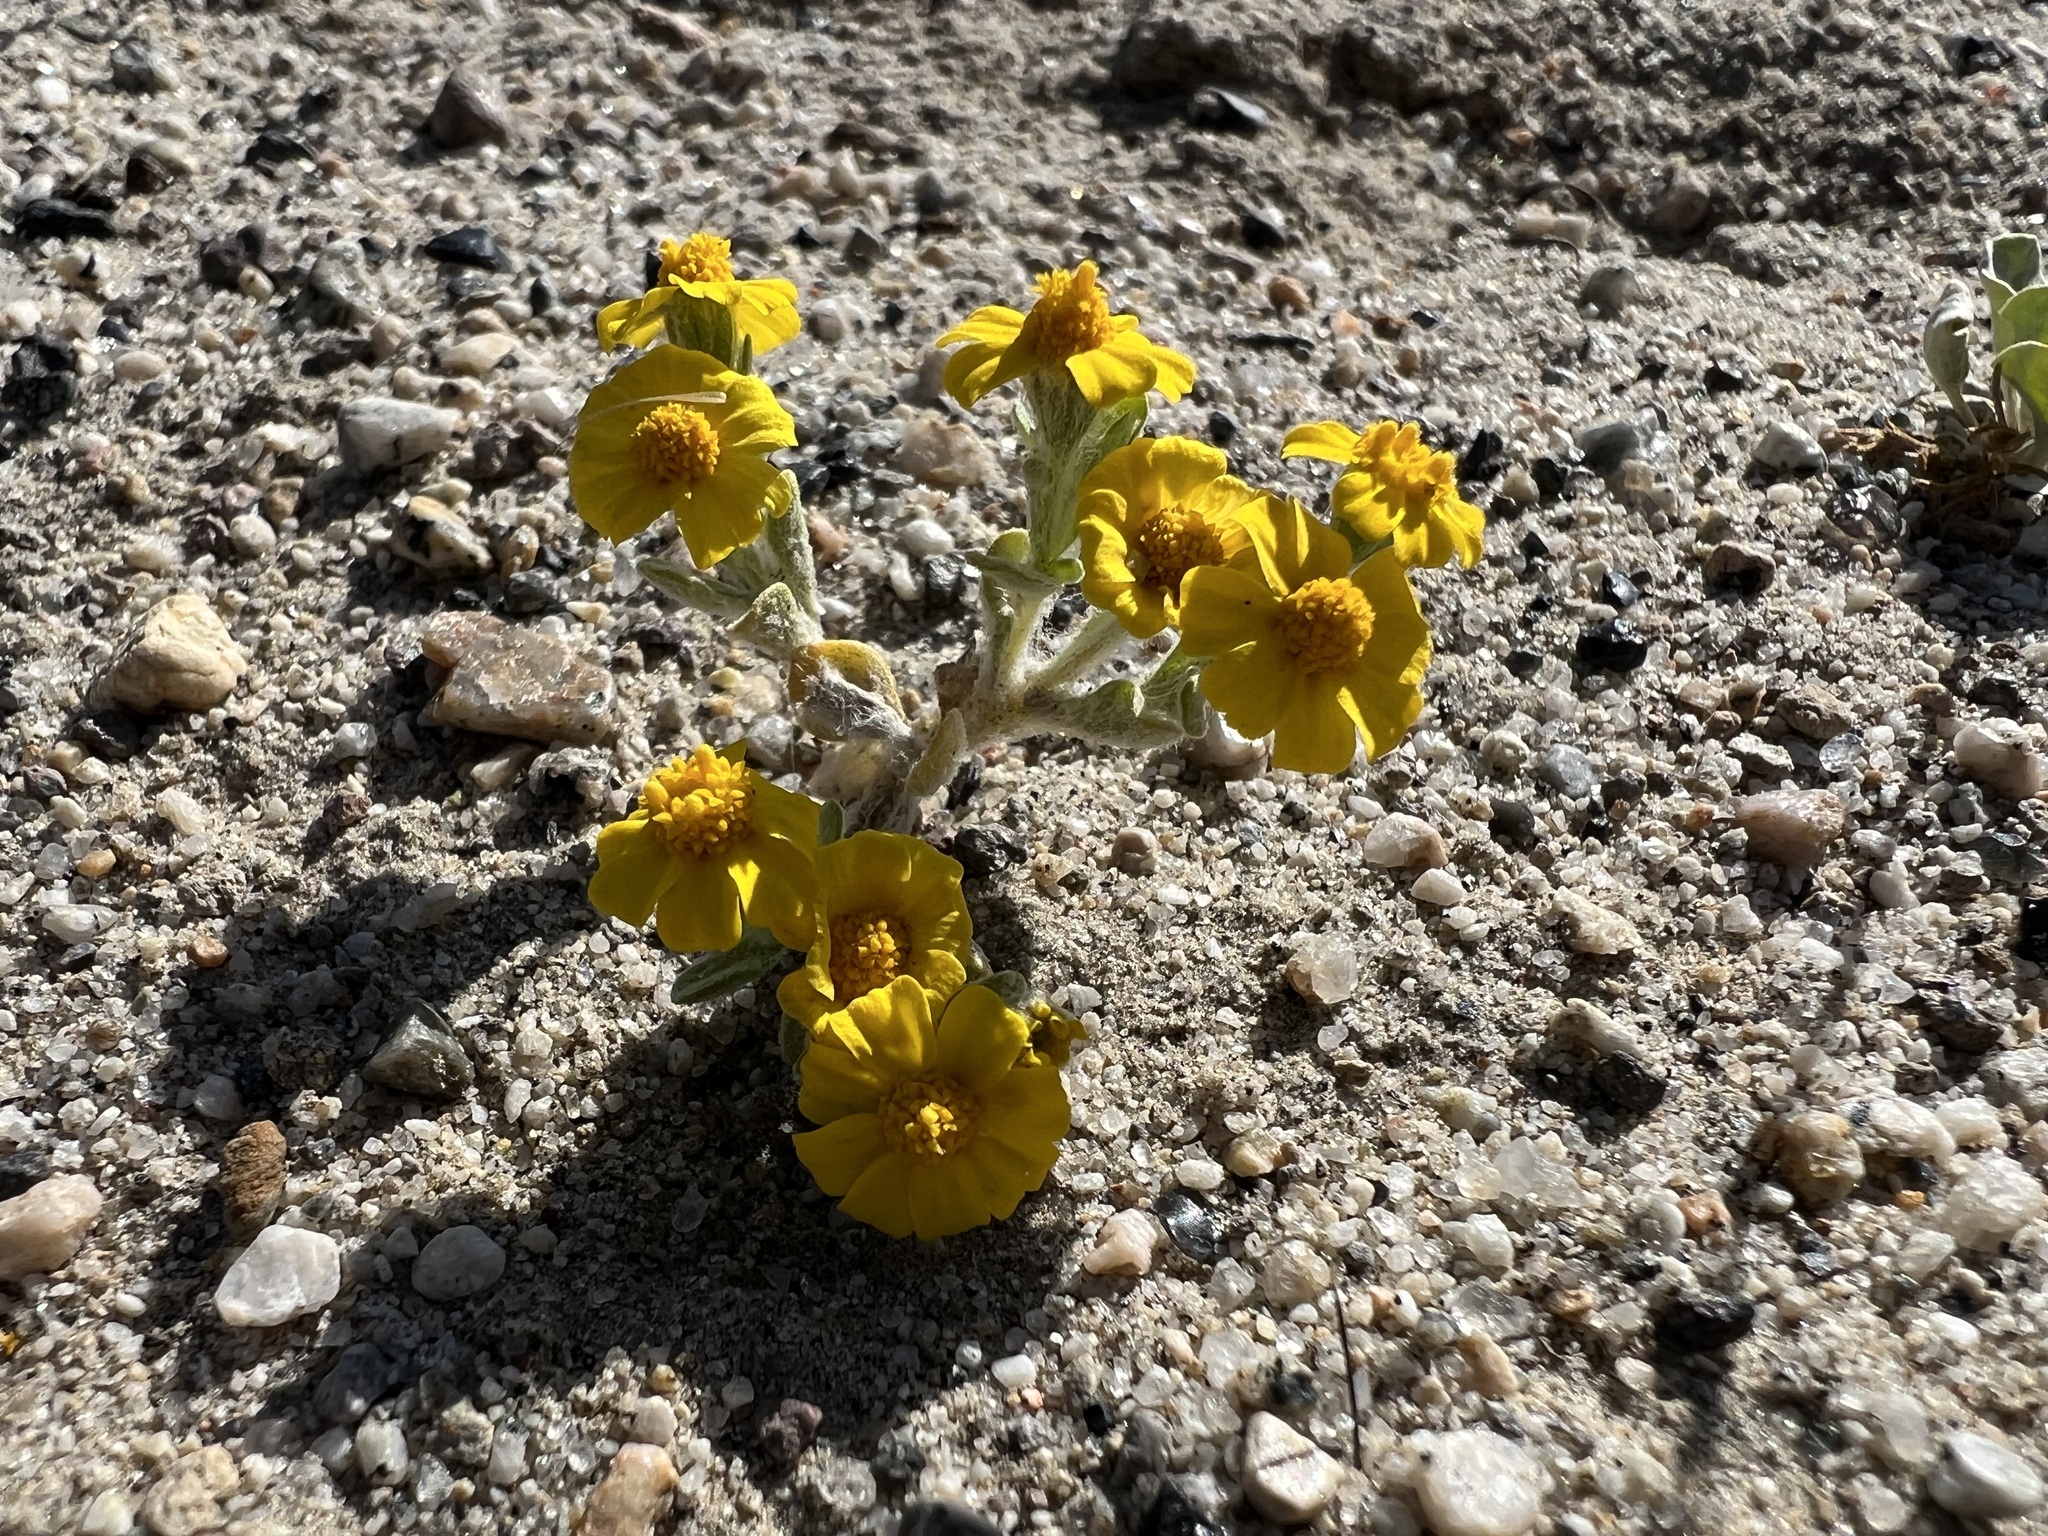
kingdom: Plantae
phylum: Tracheophyta
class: Magnoliopsida
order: Asterales
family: Asteraceae
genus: Eriophyllum
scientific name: Eriophyllum wallacei
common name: Wallace's woolly daisy
